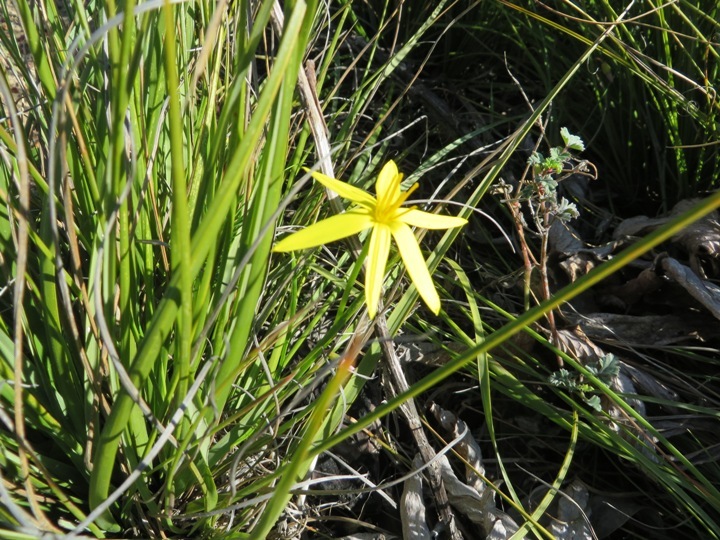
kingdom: Plantae
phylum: Tracheophyta
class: Liliopsida
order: Asparagales
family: Hypoxidaceae
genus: Pauridia
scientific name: Pauridia capensis
